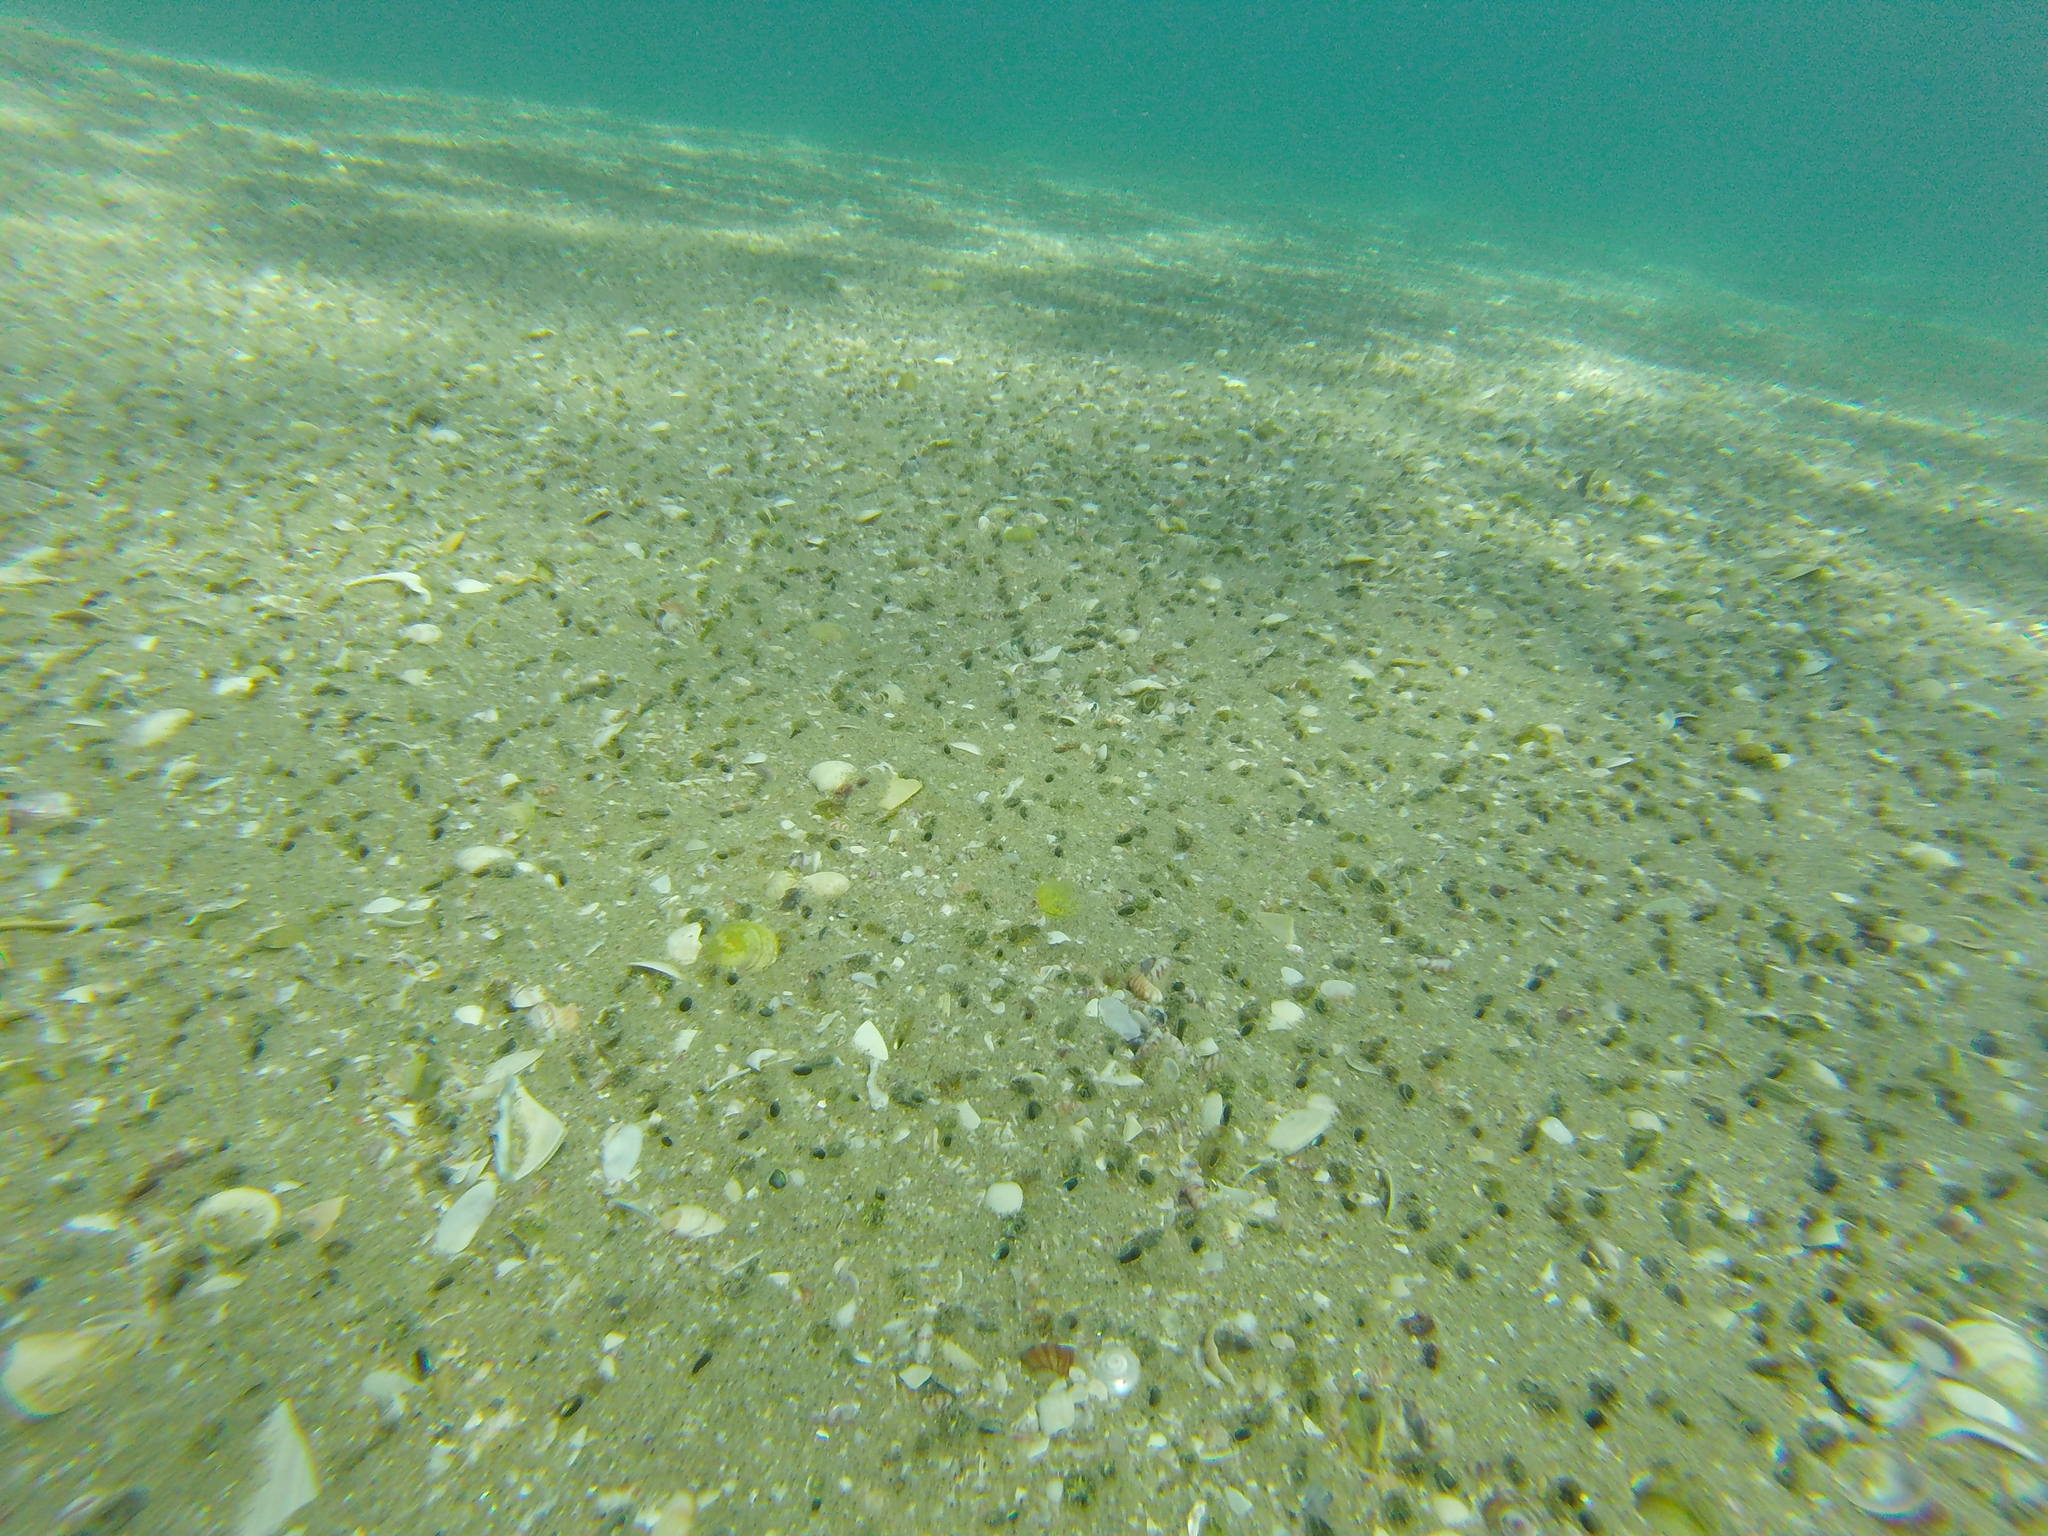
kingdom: Animalia
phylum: Mollusca
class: Bivalvia
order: Venerida
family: Mesodesmatidae
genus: Paphies
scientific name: Paphies australis
